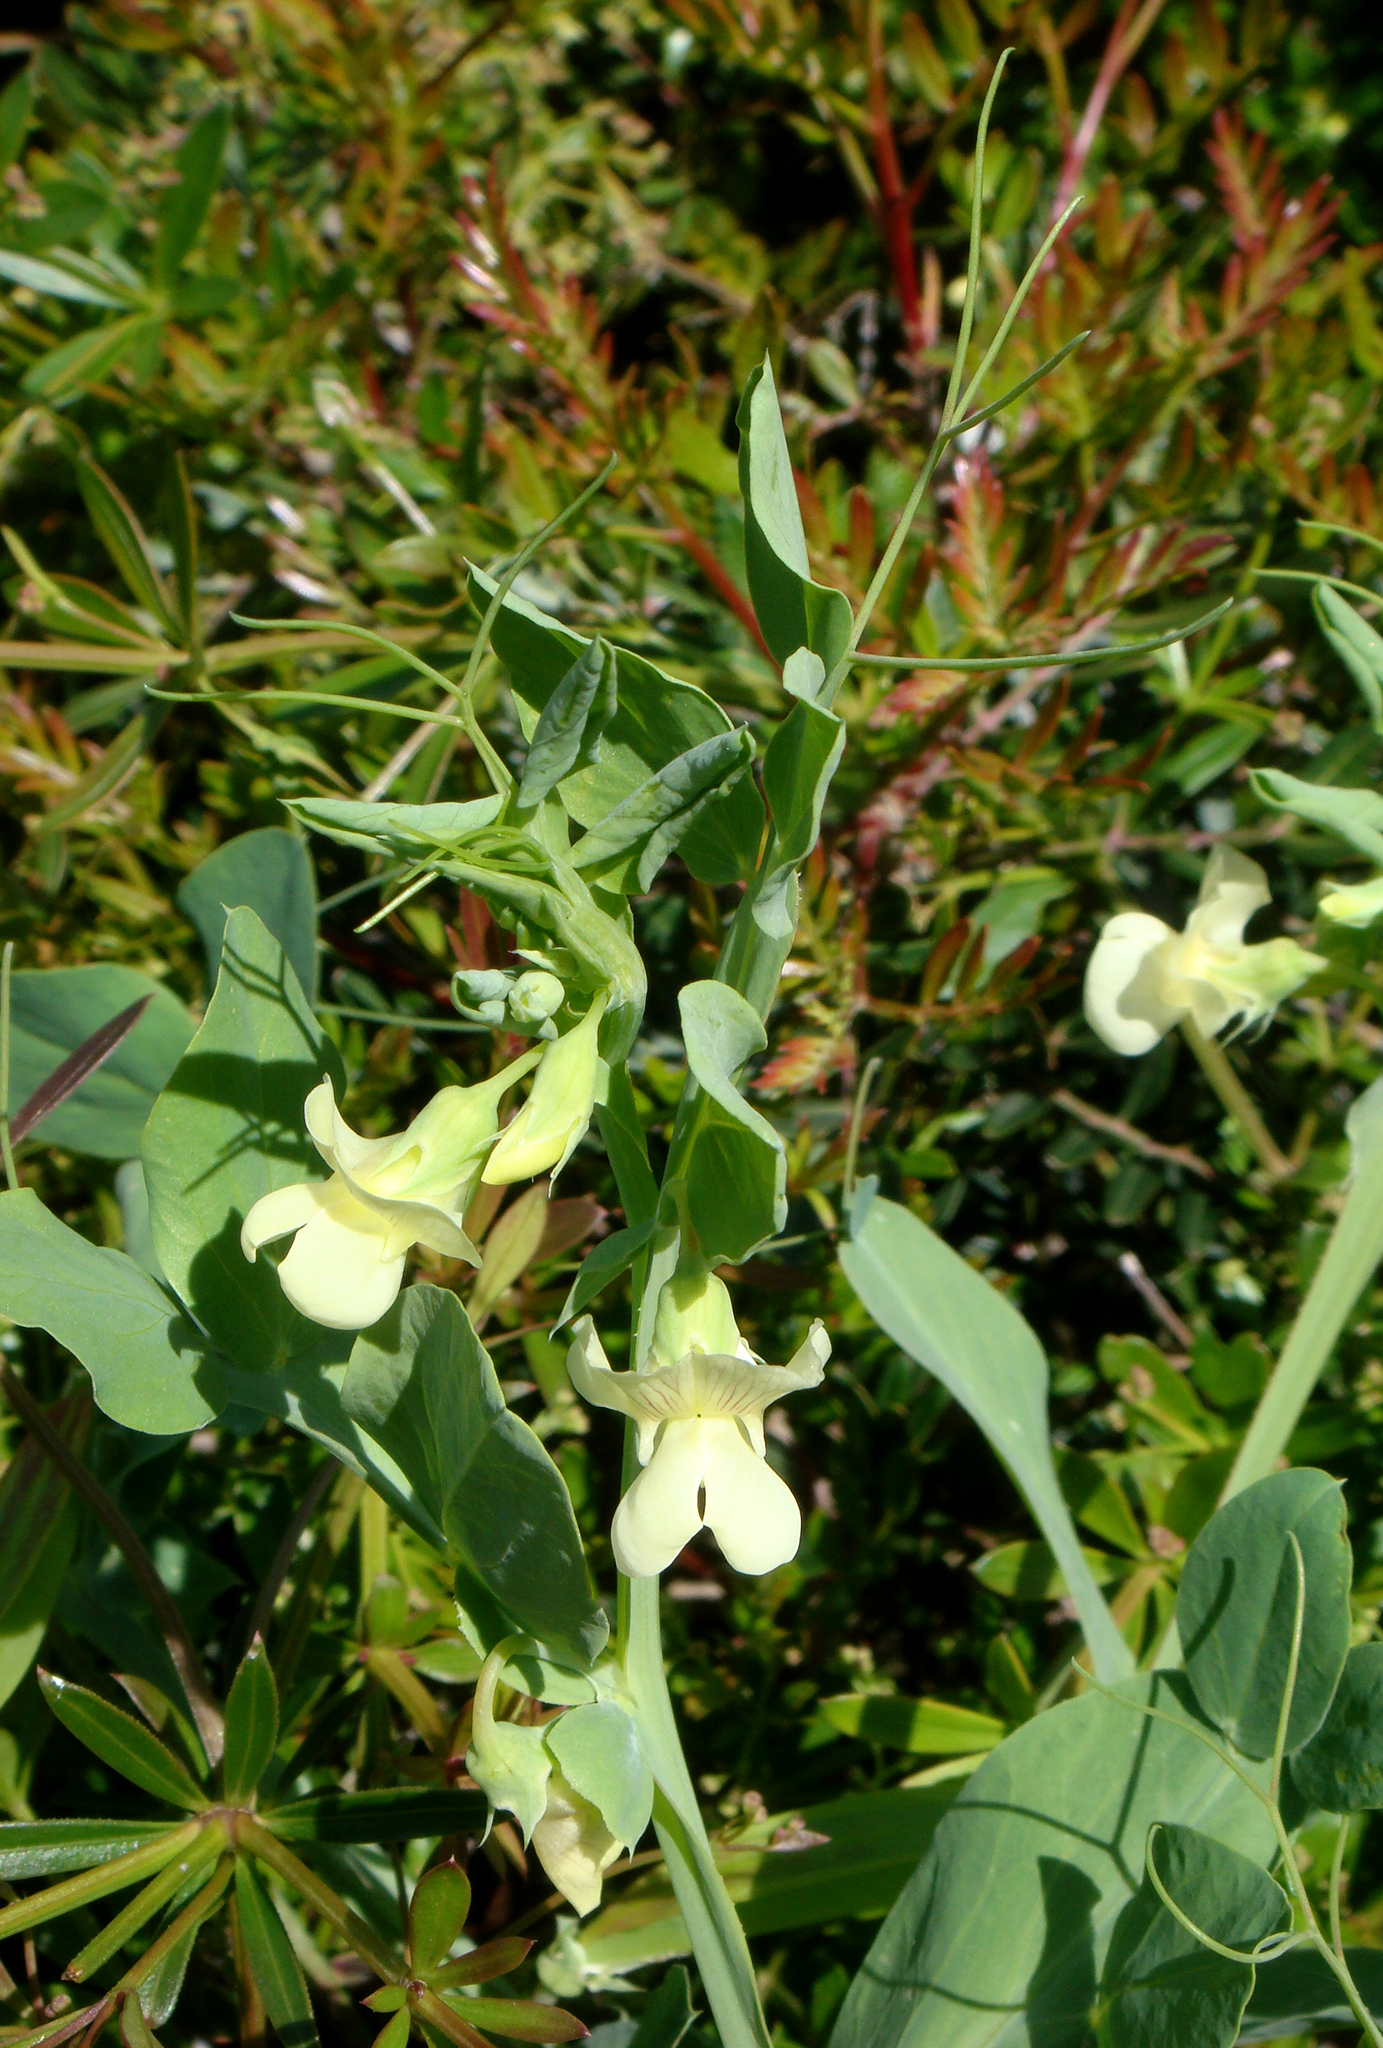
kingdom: Plantae
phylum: Tracheophyta
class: Magnoliopsida
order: Fabales
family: Fabaceae
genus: Lathyrus
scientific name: Lathyrus ochrus
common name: Winged vetchling
